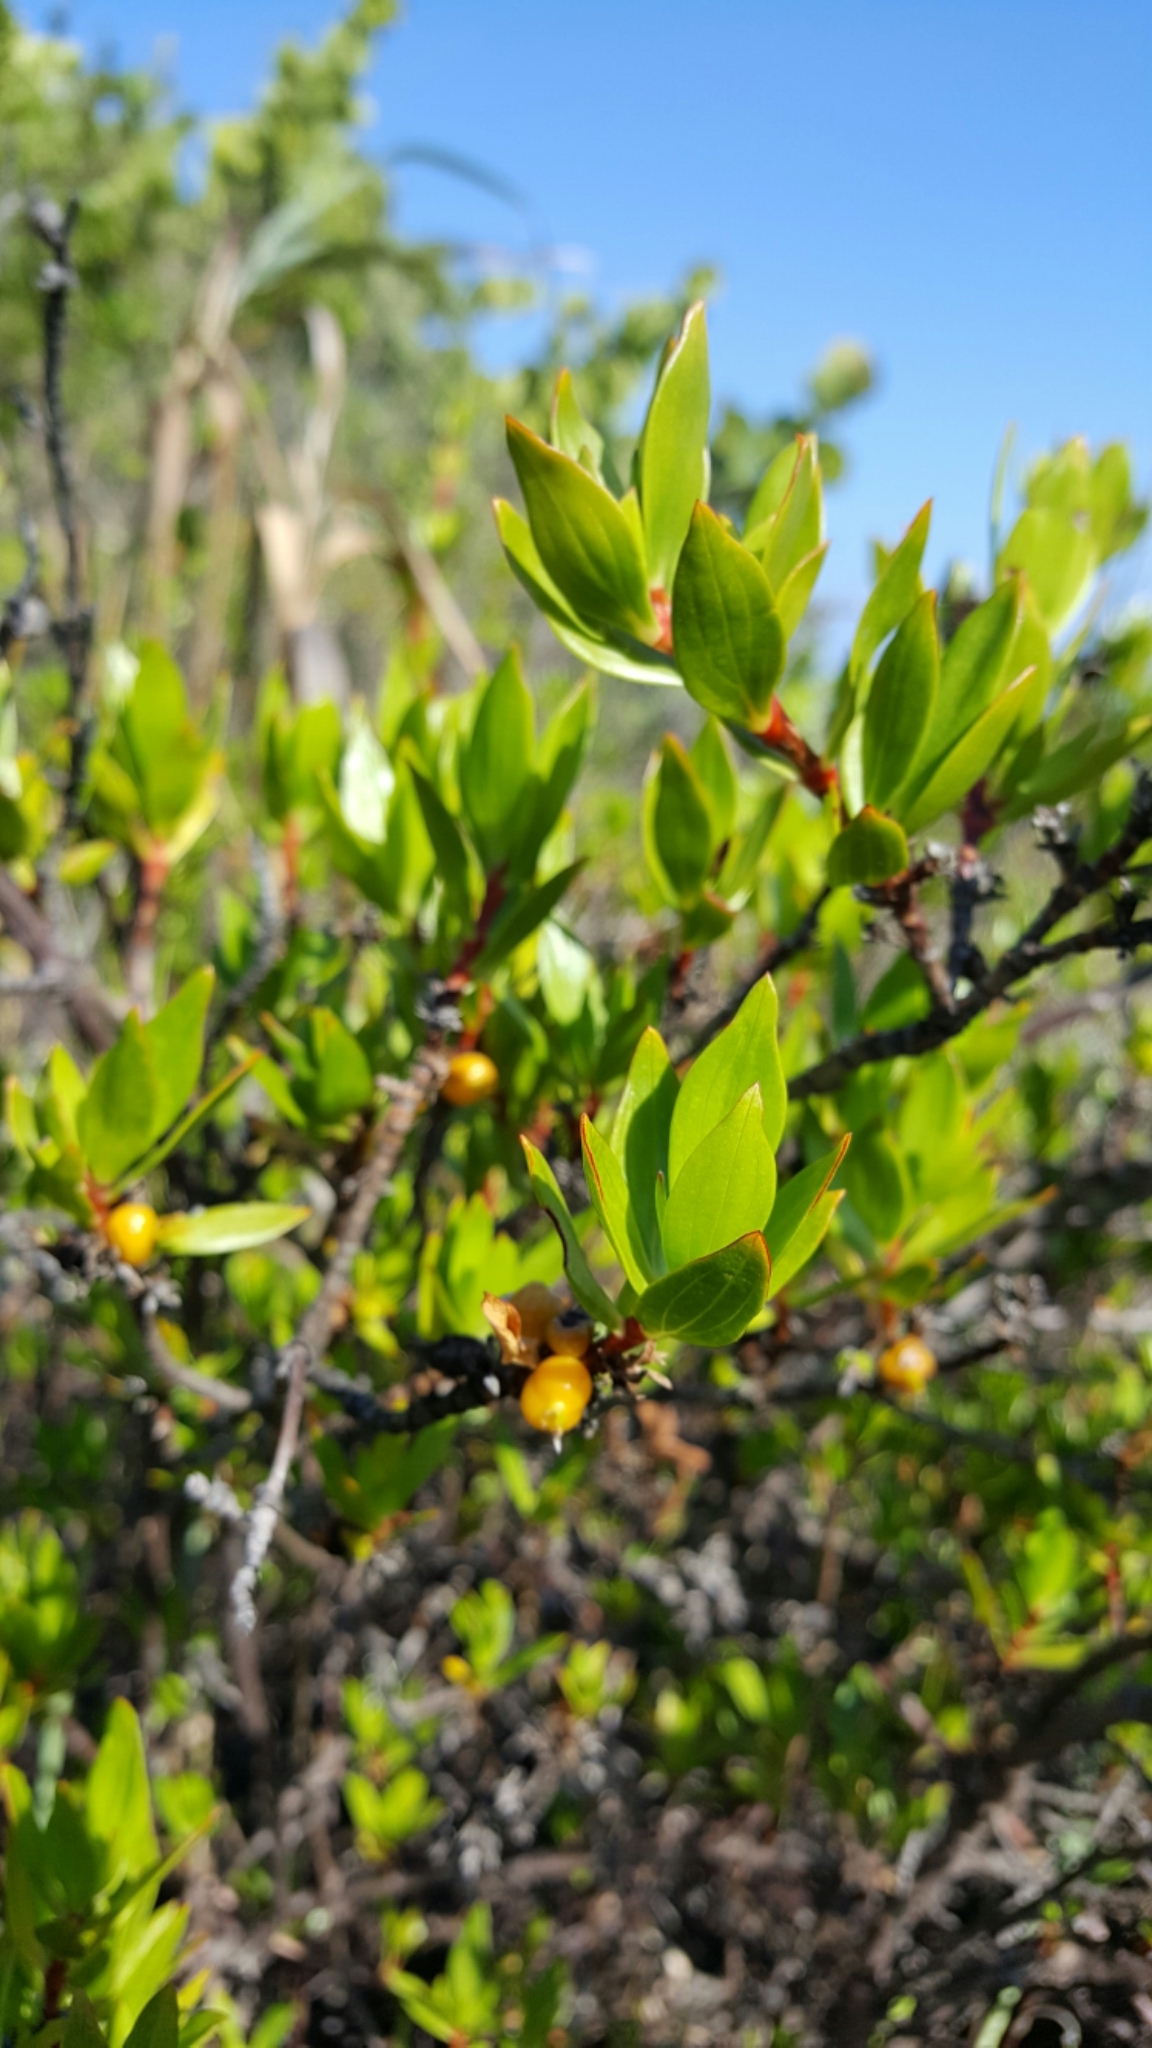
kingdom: Plantae
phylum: Tracheophyta
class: Magnoliopsida
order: Gentianales
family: Rubiaceae
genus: Ernodea
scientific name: Ernodea littoralis
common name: Beach creeper
